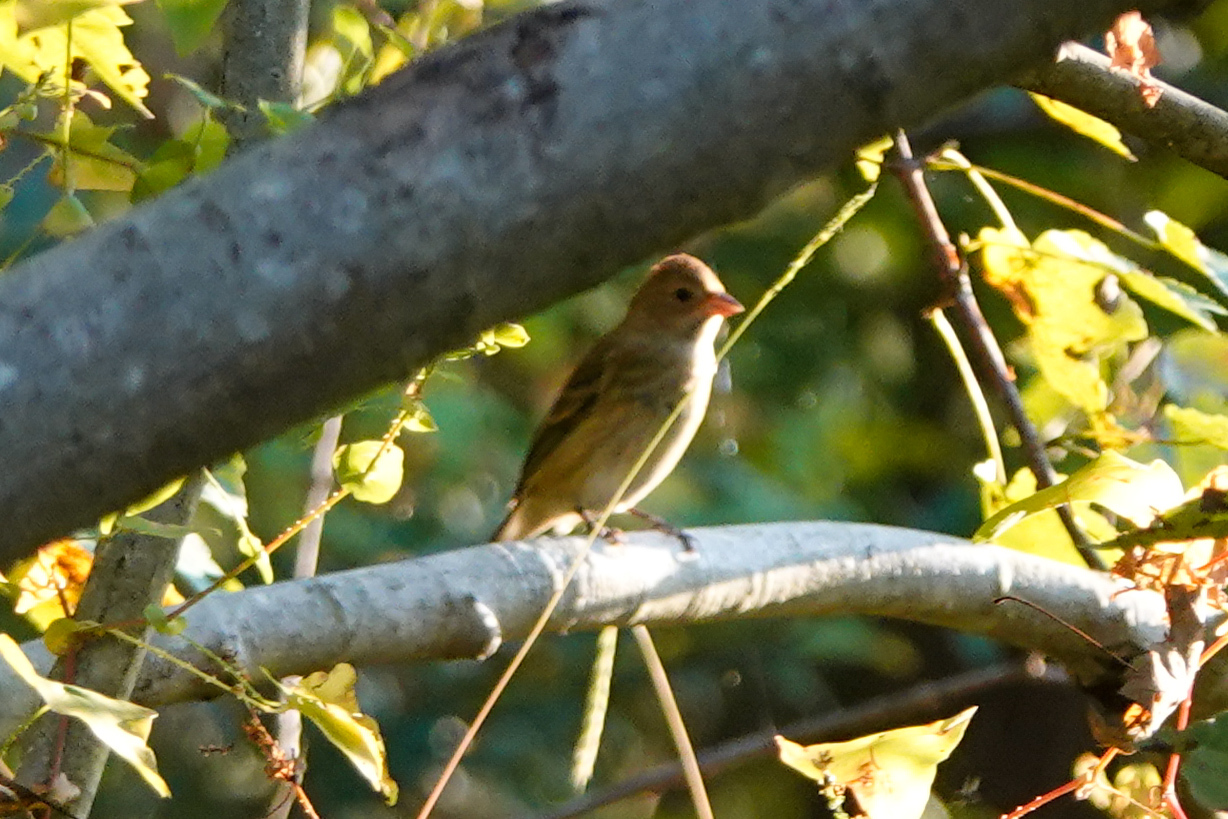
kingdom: Animalia
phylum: Chordata
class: Aves
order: Passeriformes
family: Cardinalidae
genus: Passerina
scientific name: Passerina cyanea
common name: Indigo bunting
